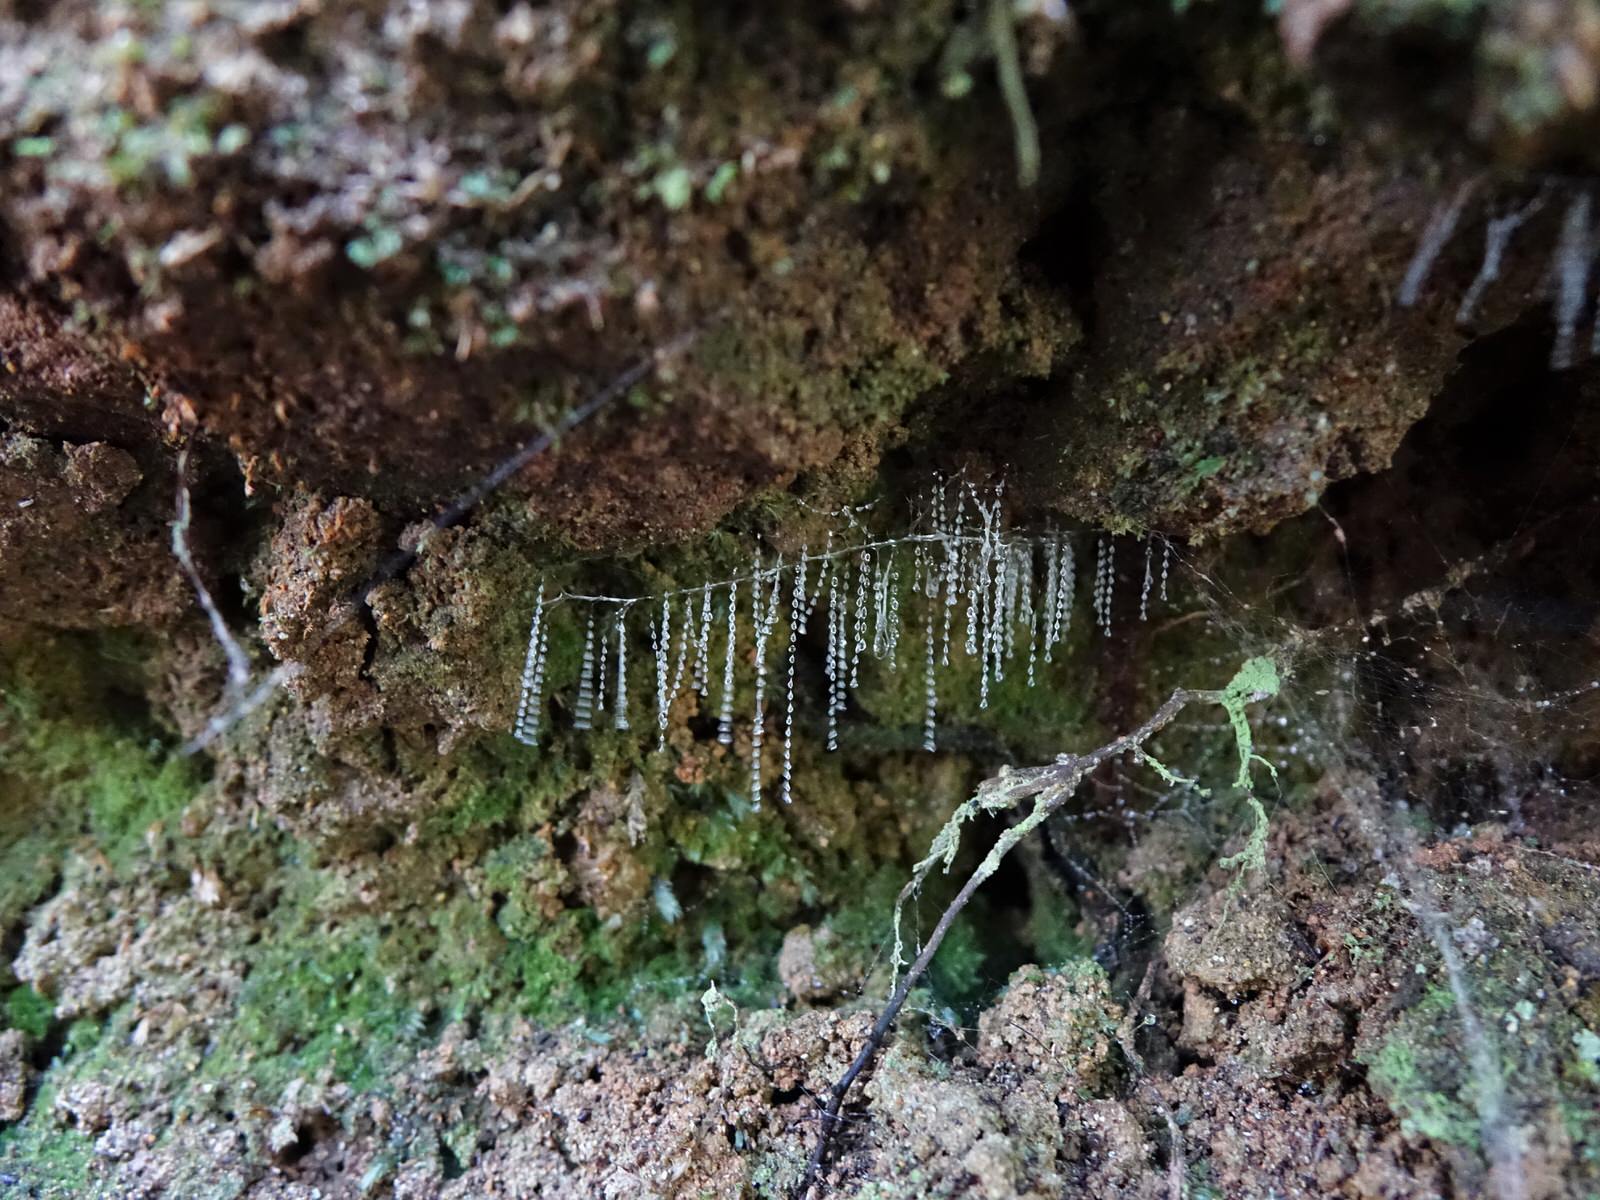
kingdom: Animalia
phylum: Arthropoda
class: Insecta
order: Diptera
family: Keroplatidae
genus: Arachnocampa
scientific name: Arachnocampa luminosa
